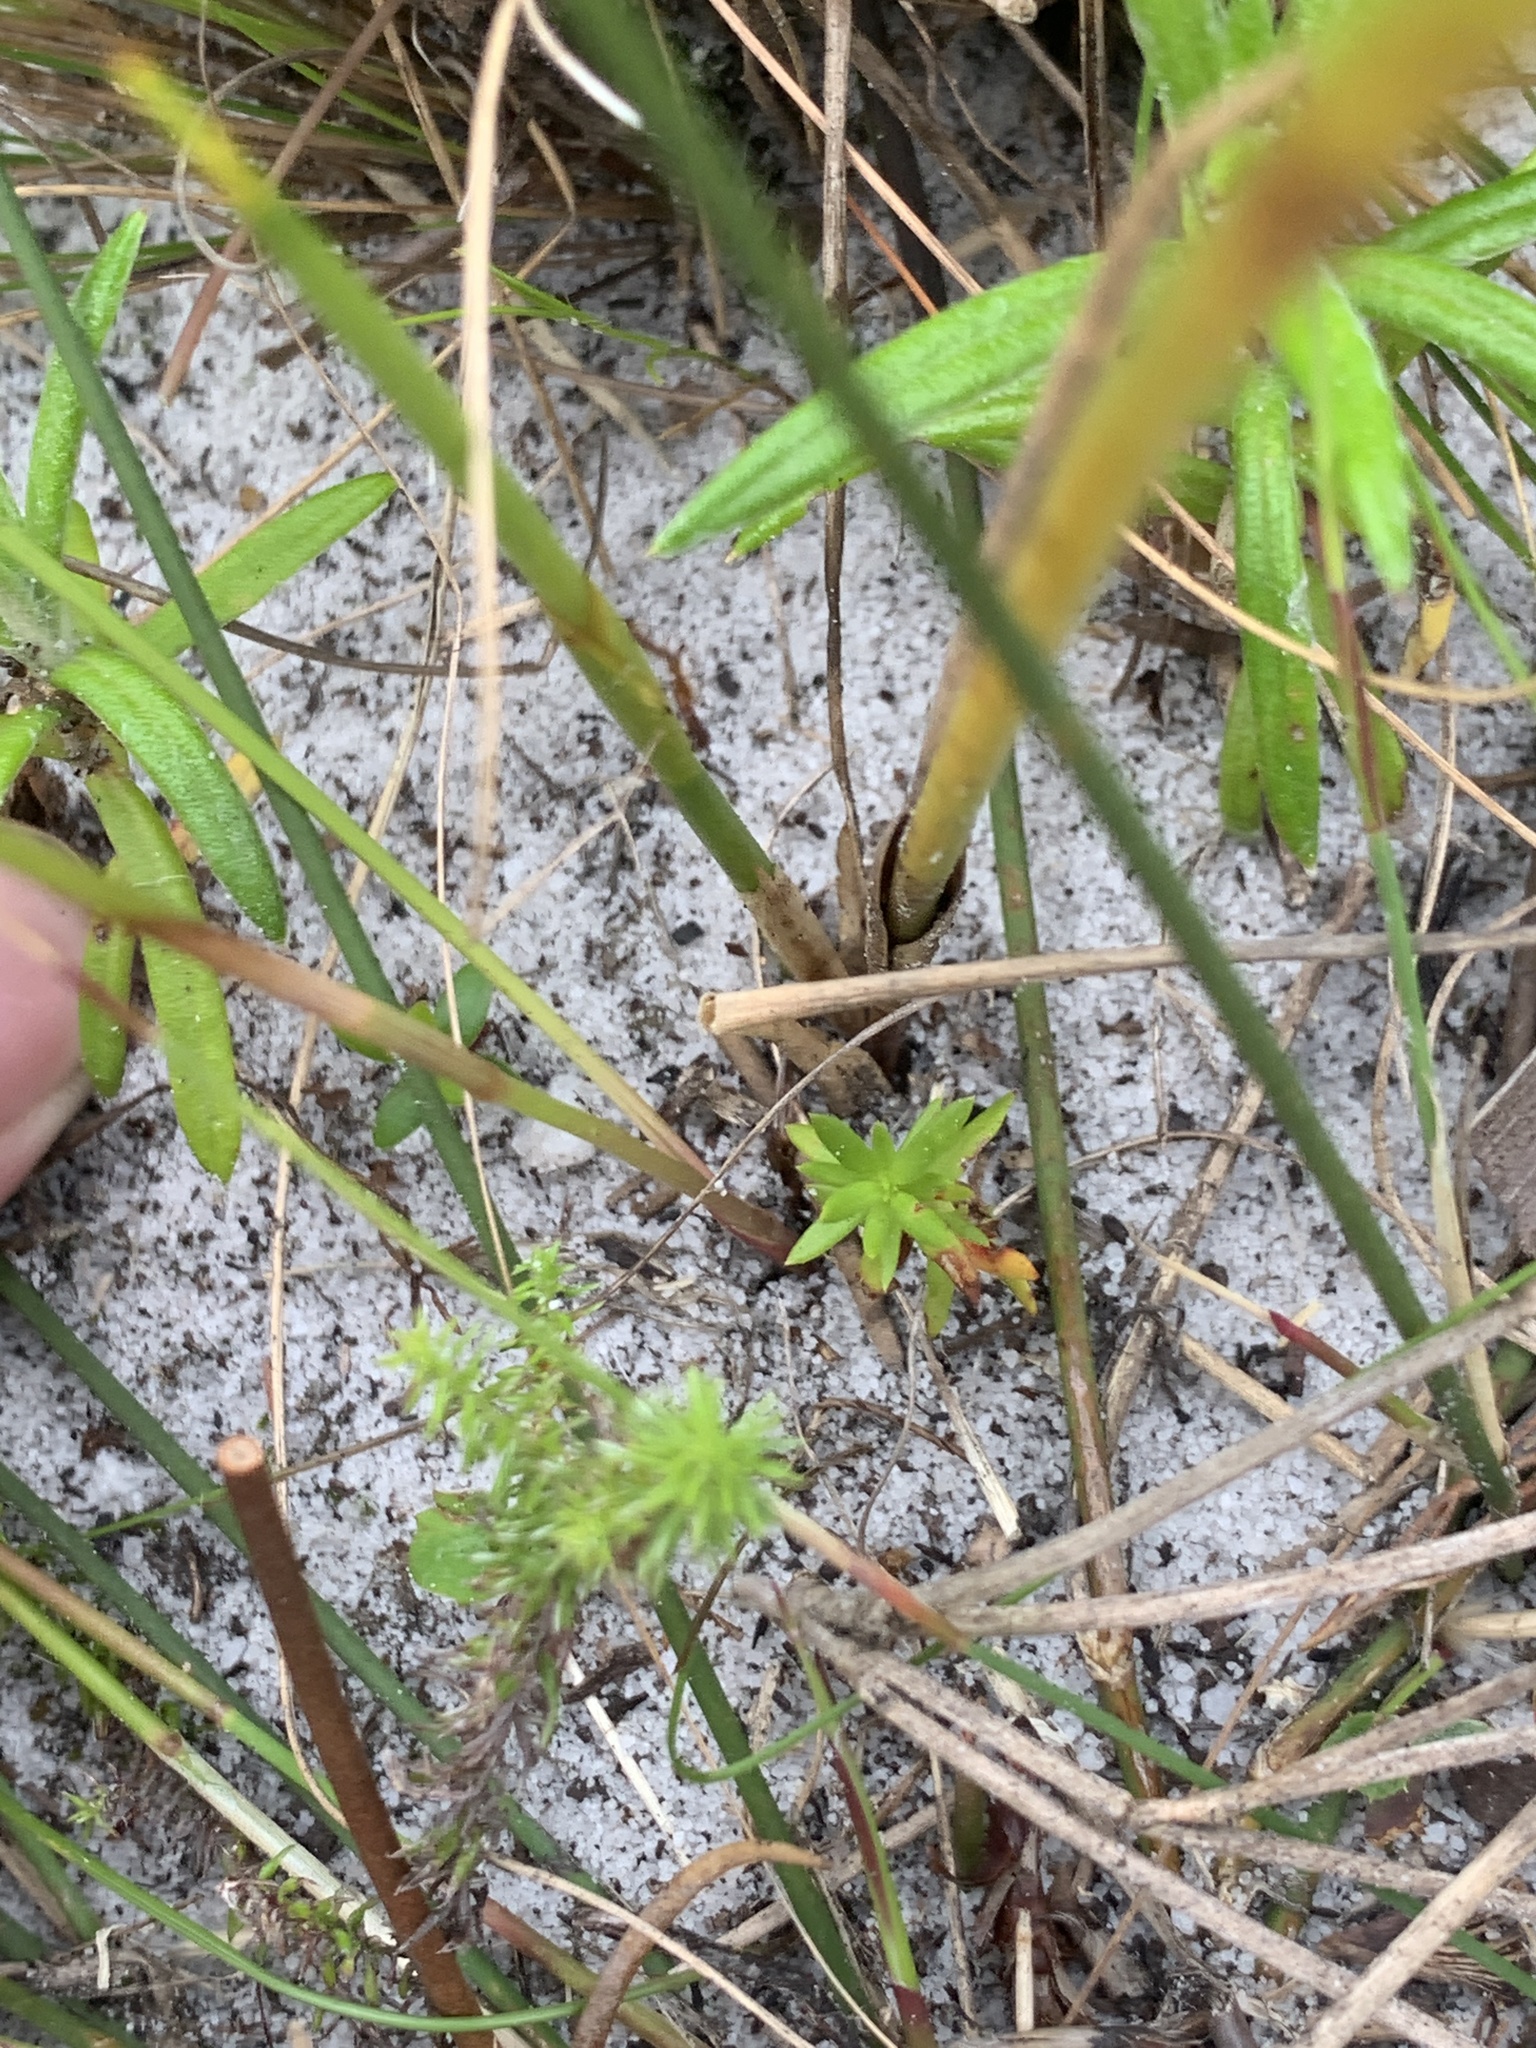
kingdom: Plantae
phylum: Tracheophyta
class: Liliopsida
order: Asparagales
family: Iridaceae
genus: Moraea
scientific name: Moraea tripetala
